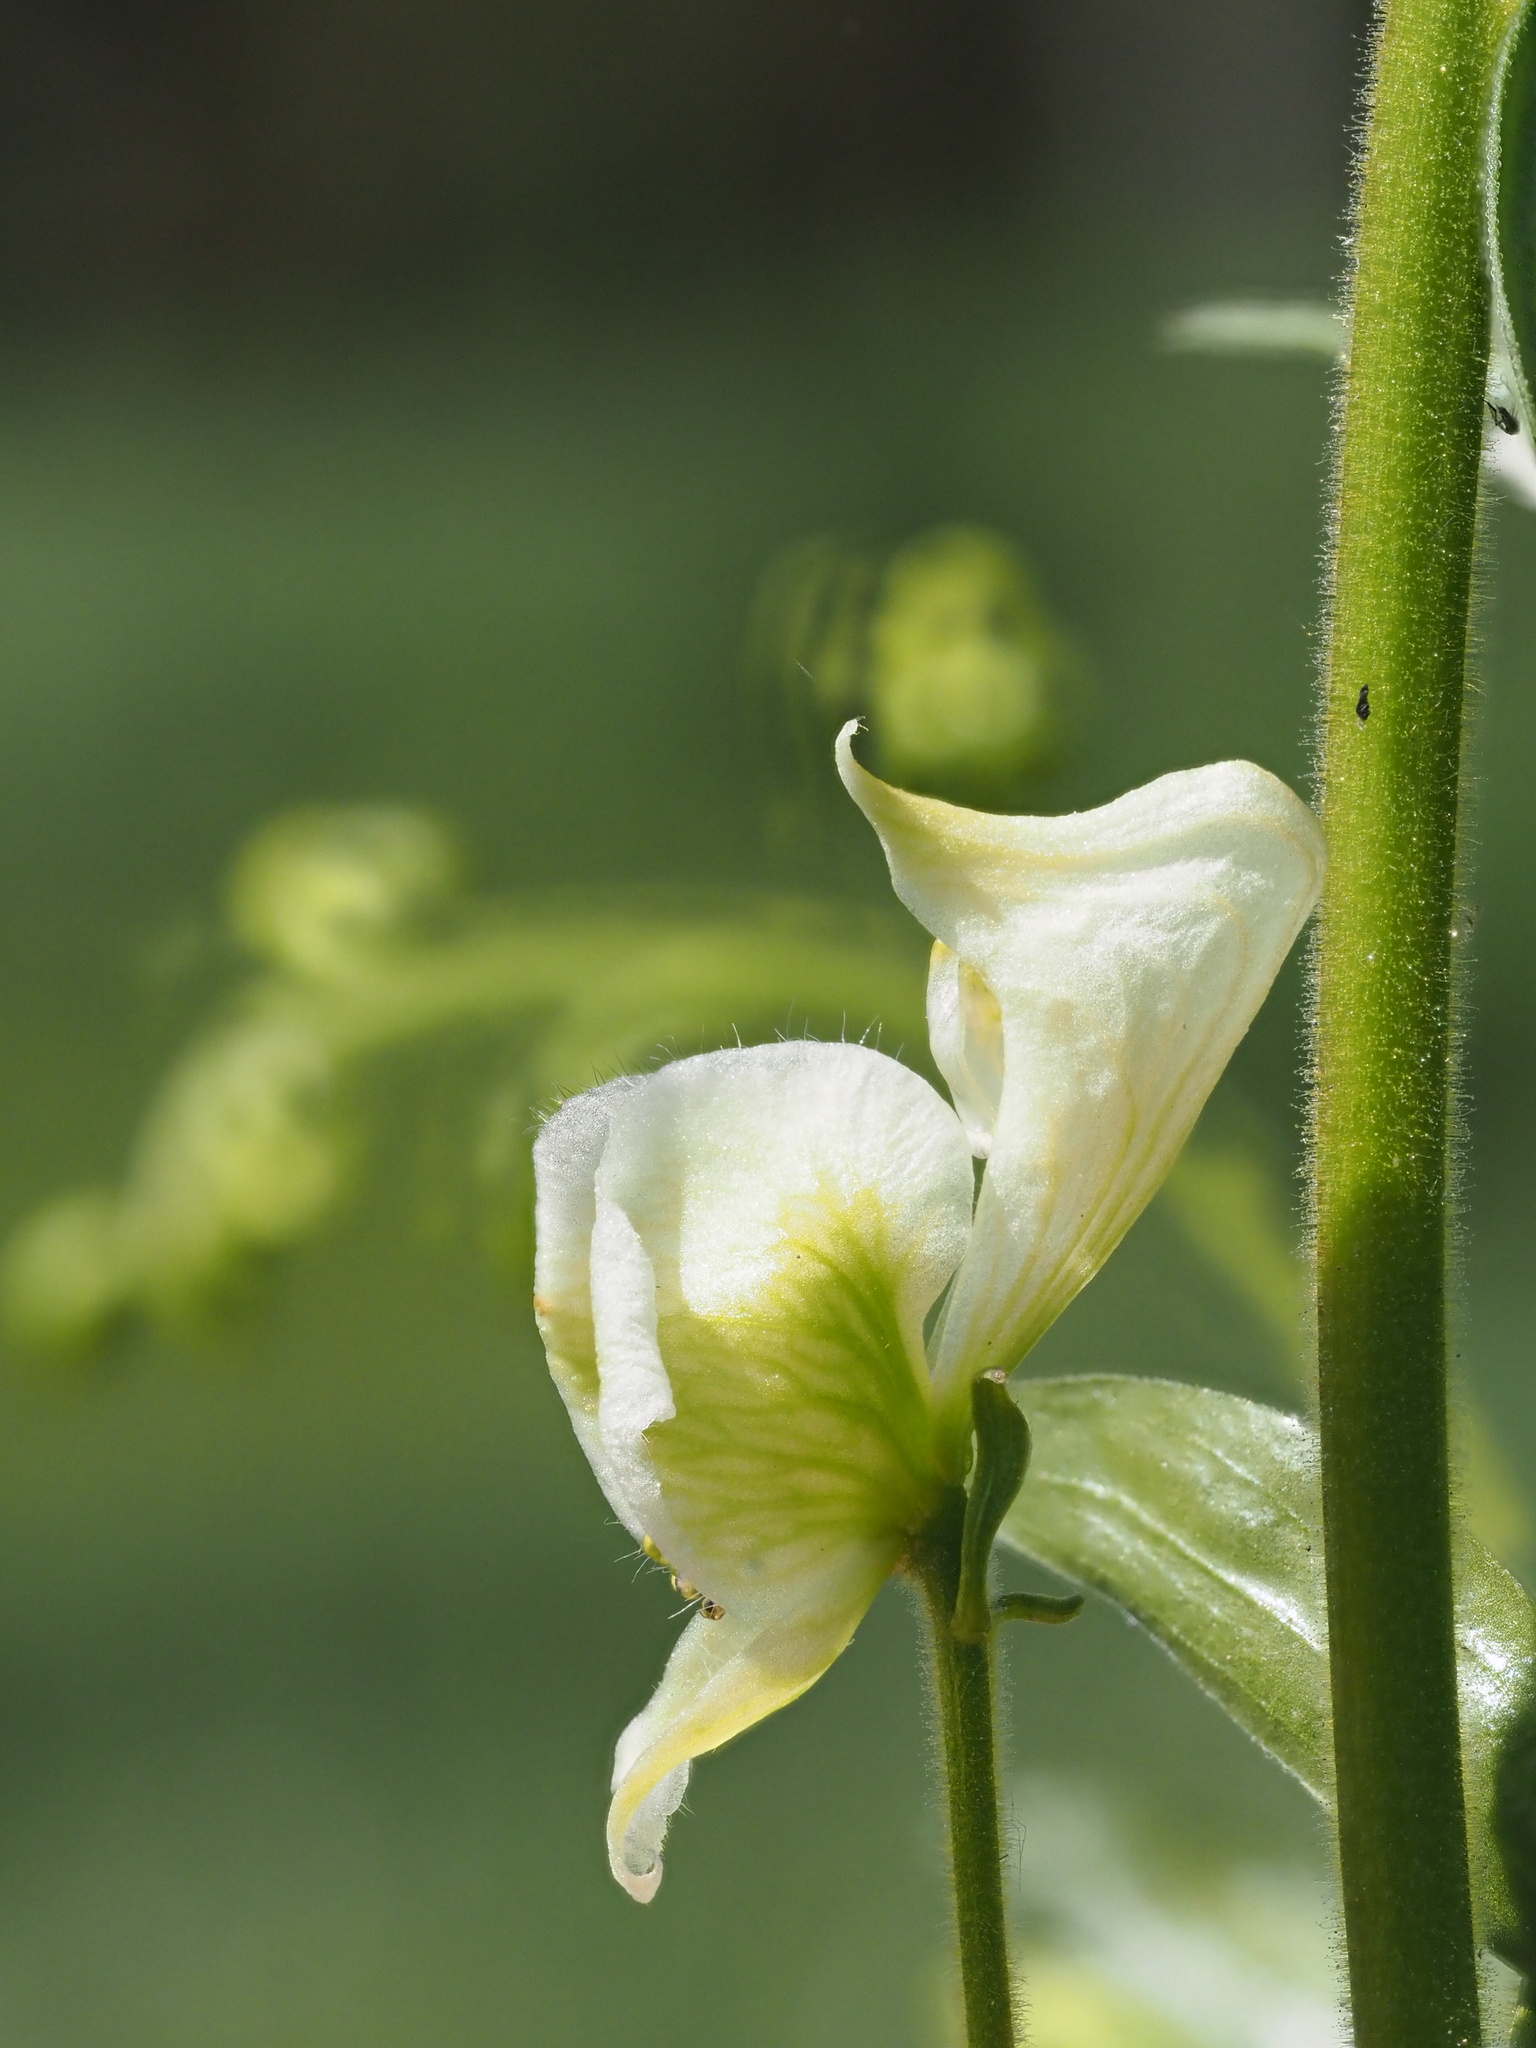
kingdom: Plantae
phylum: Tracheophyta
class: Magnoliopsida
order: Ranunculales
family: Ranunculaceae
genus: Aconitum
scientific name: Aconitum columbianum
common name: Columbia aconite
